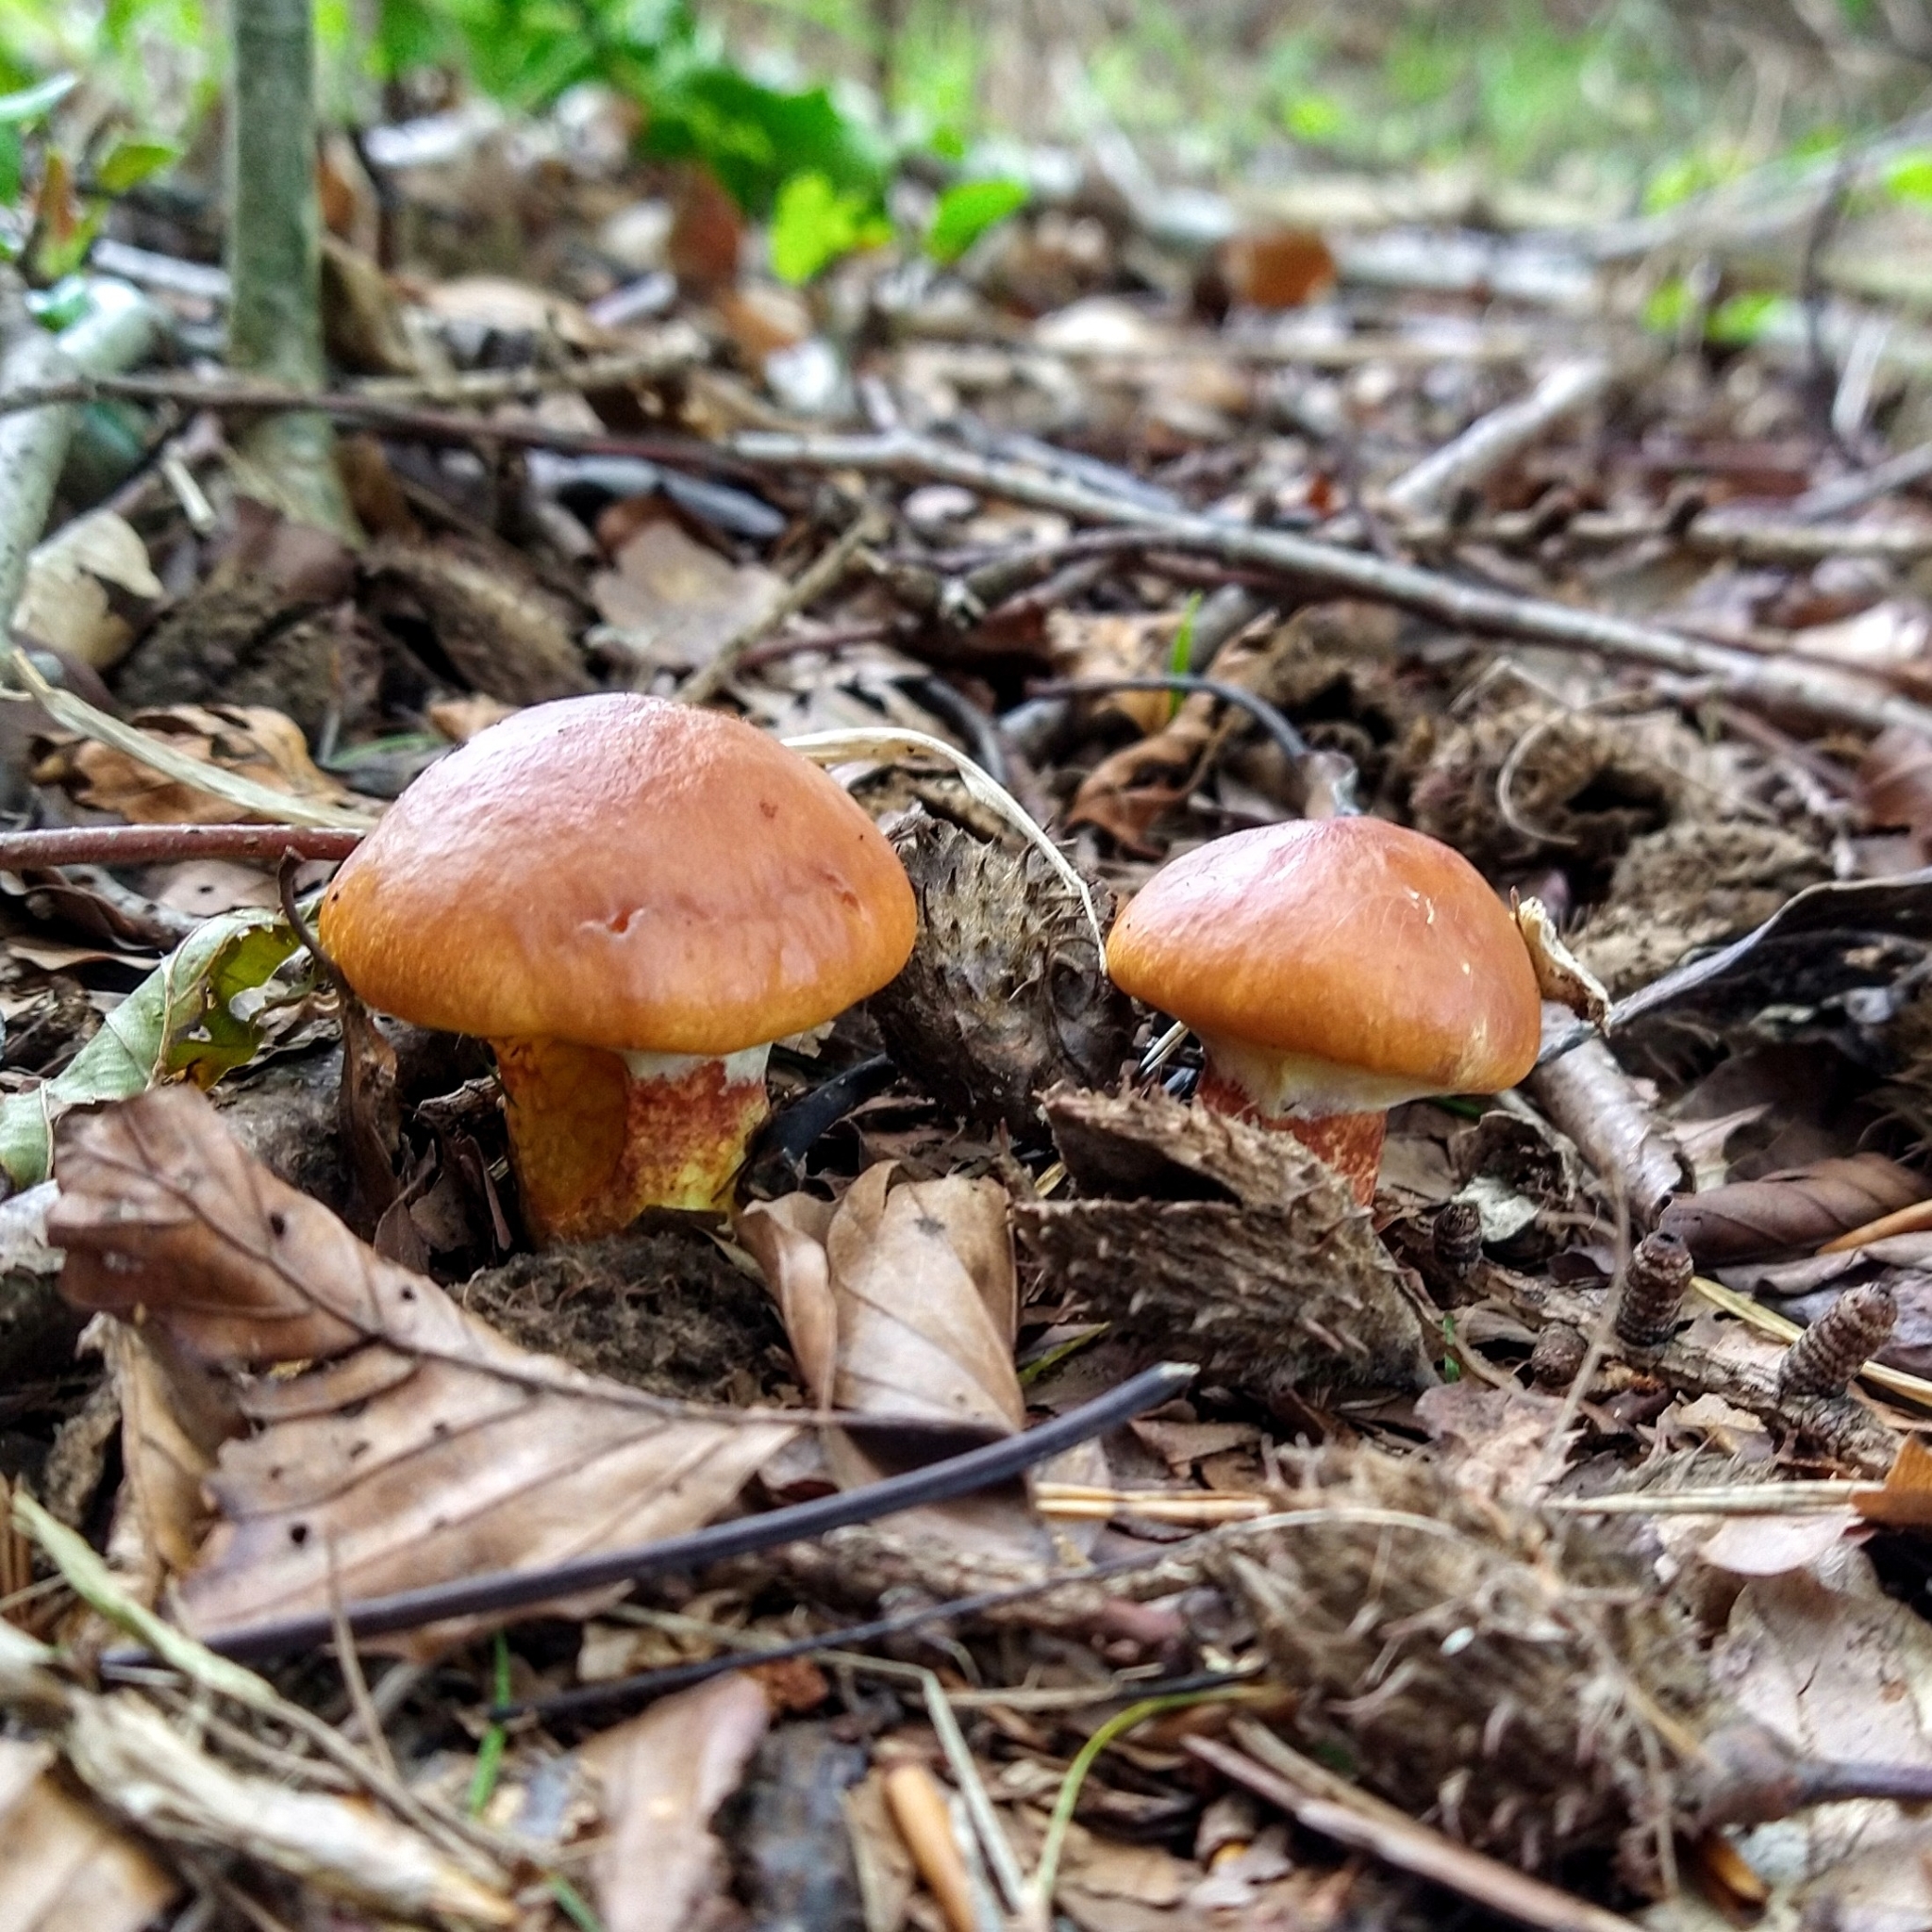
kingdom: Fungi
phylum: Basidiomycota
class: Agaricomycetes
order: Boletales
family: Suillaceae
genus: Suillus
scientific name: Suillus grevillei
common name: Larch bolete
